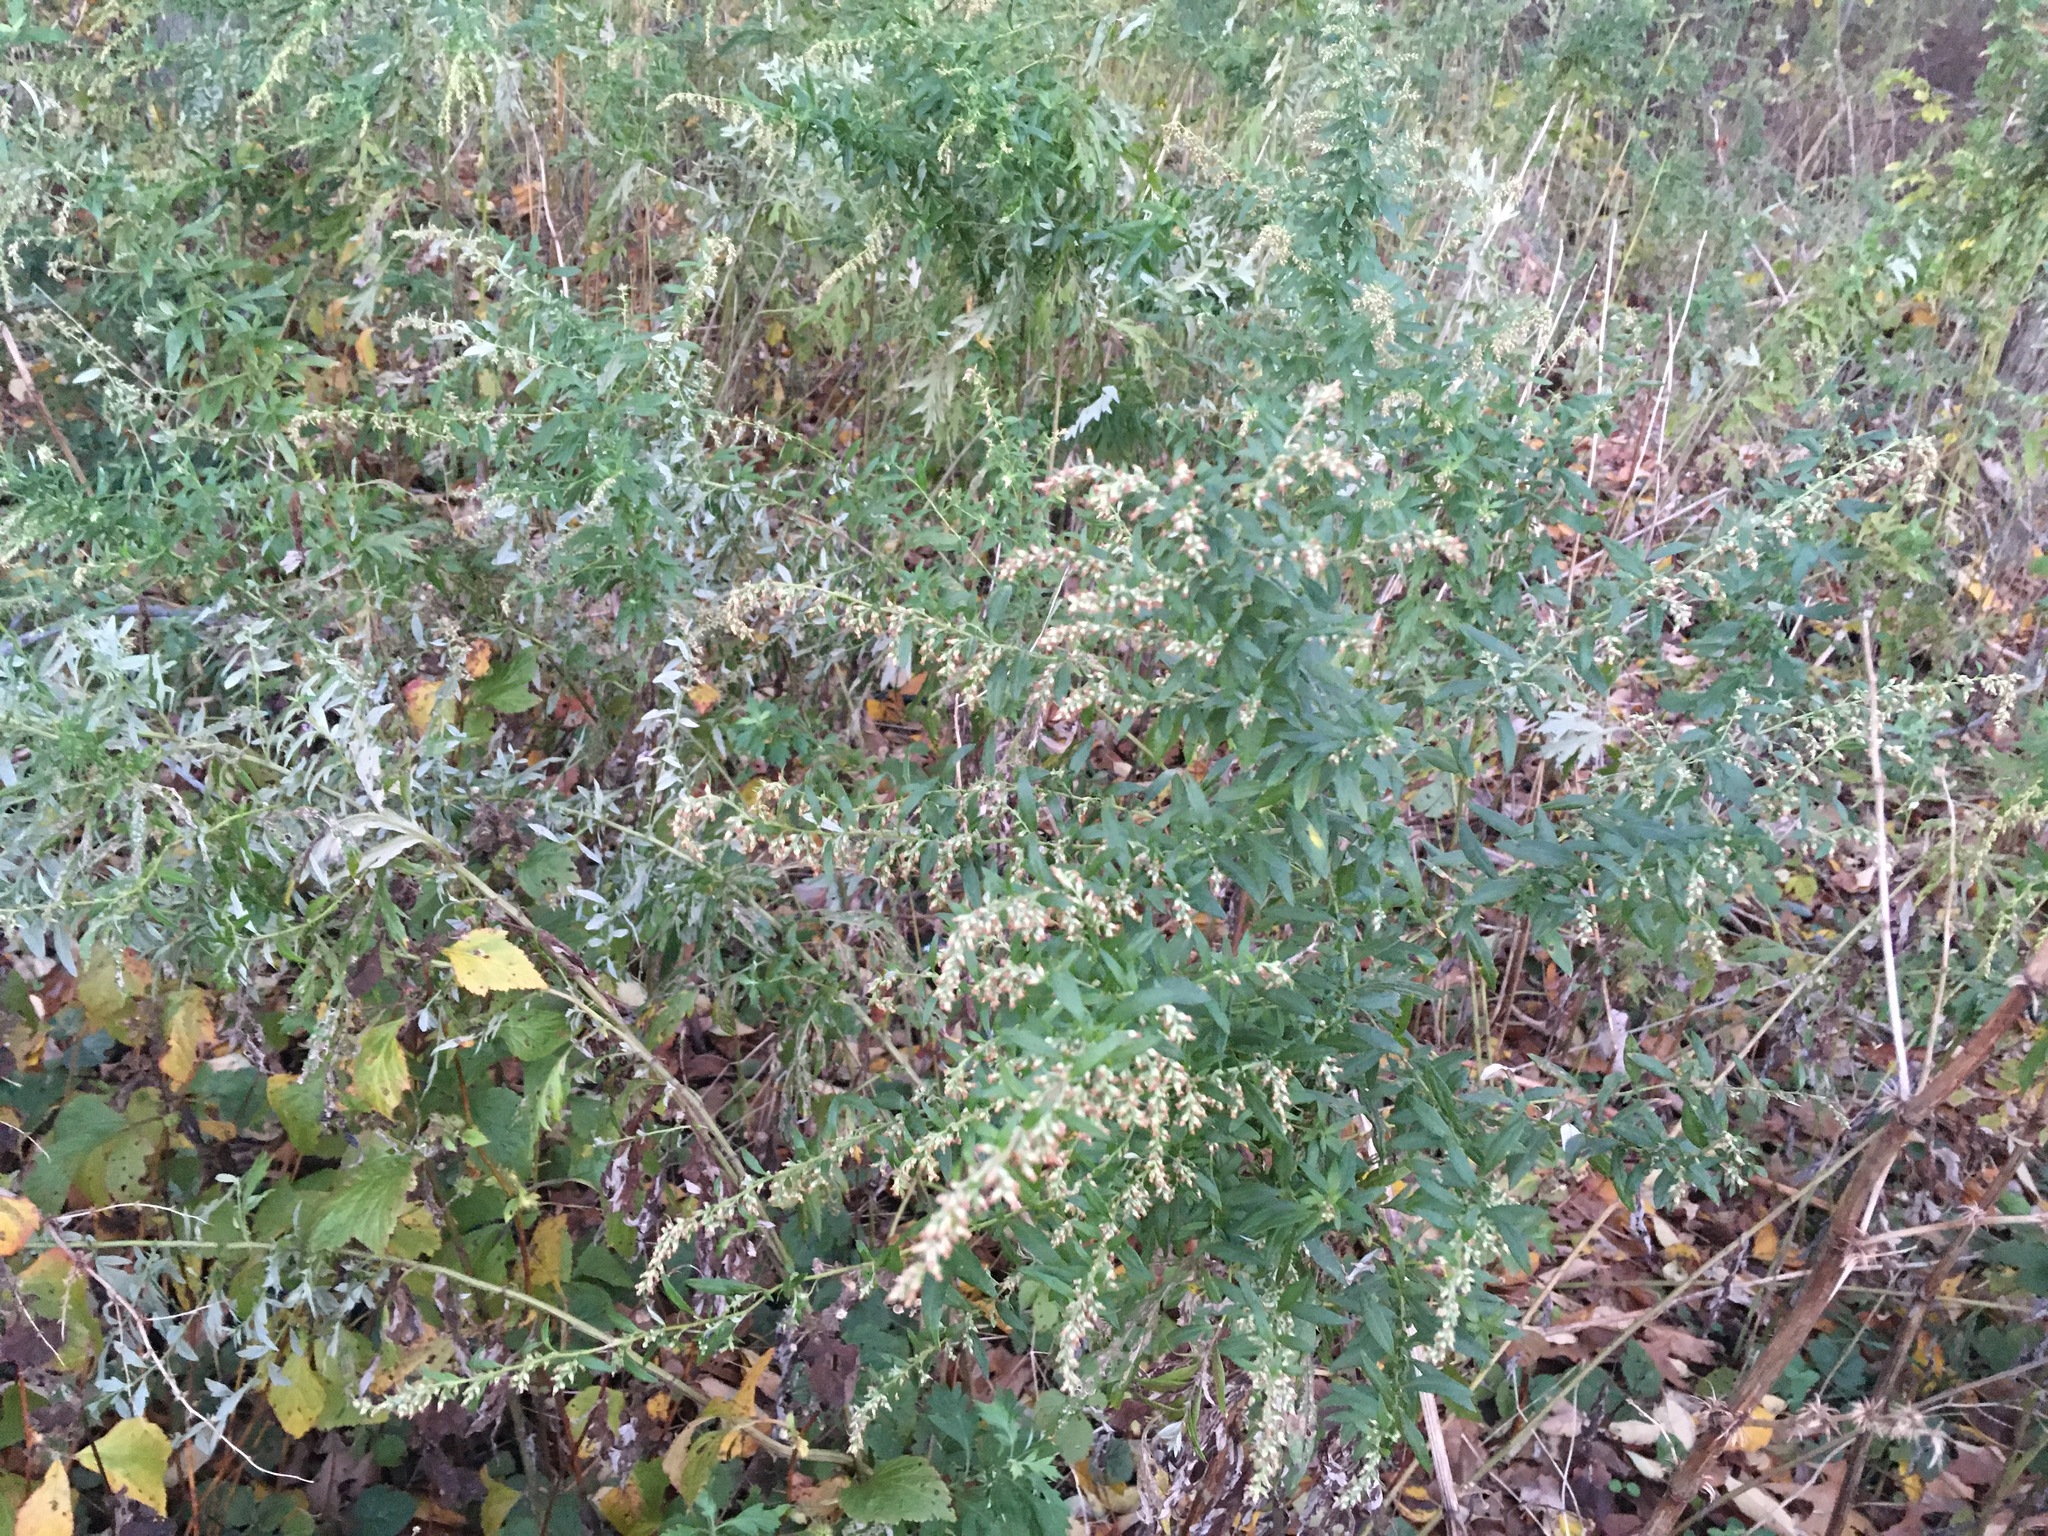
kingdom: Plantae
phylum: Tracheophyta
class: Magnoliopsida
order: Asterales
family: Asteraceae
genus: Artemisia
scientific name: Artemisia vulgaris
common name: Mugwort
